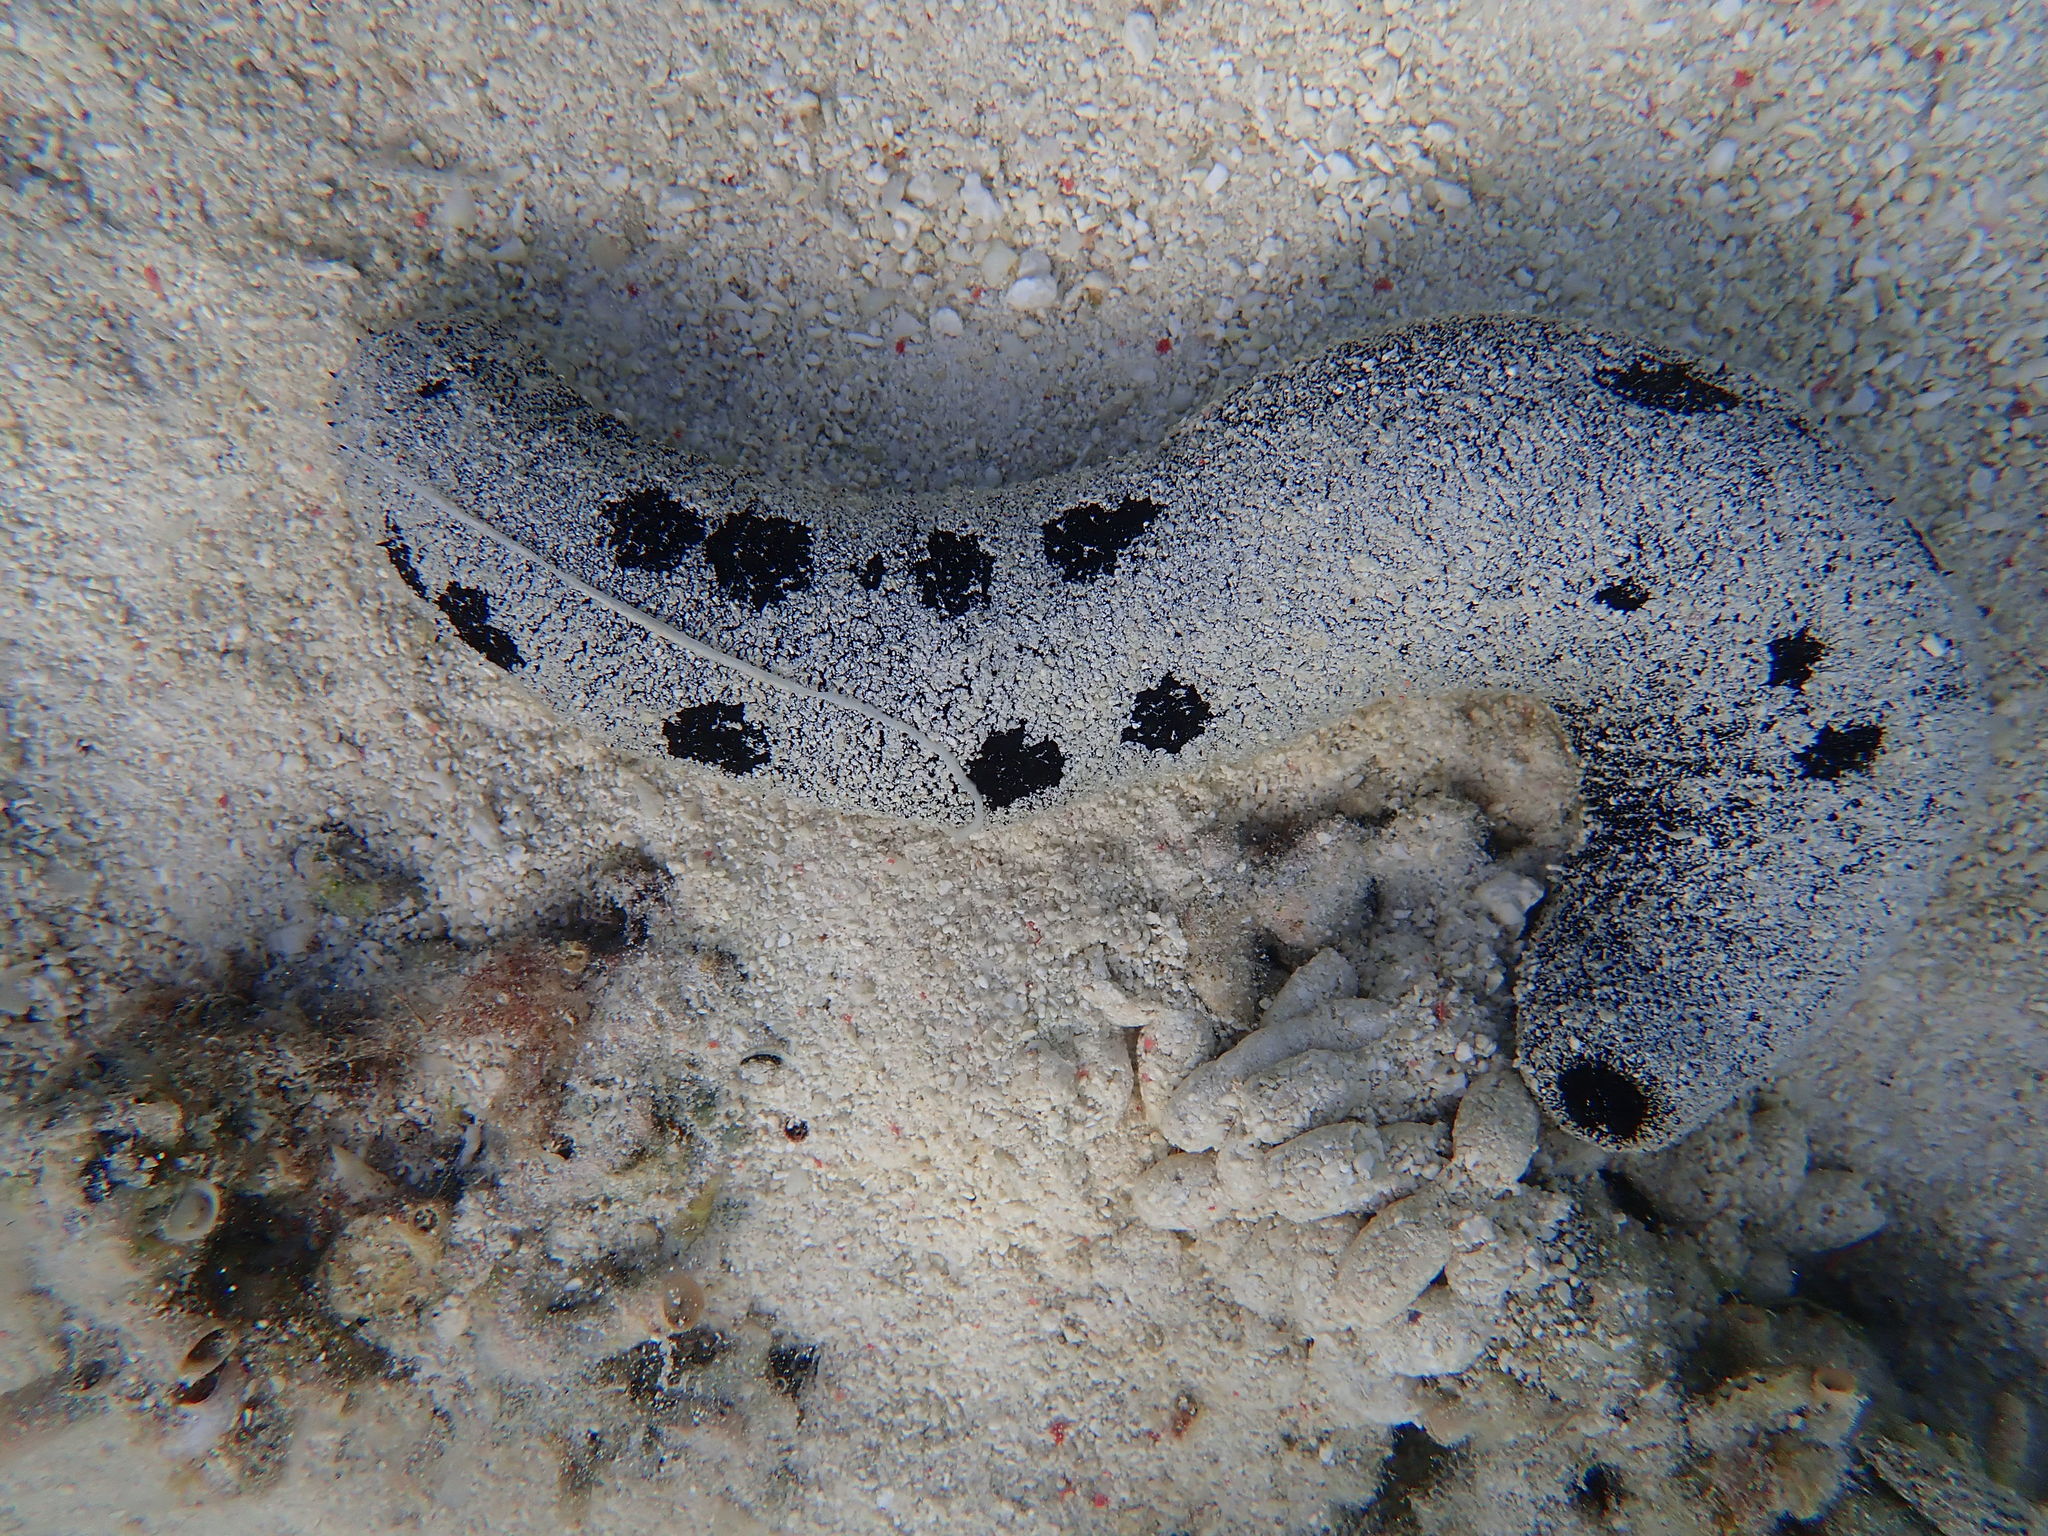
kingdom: Animalia
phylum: Echinodermata
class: Holothuroidea
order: Holothuriida
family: Holothuriidae
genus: Holothuria
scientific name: Holothuria atra
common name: Lollyfish
